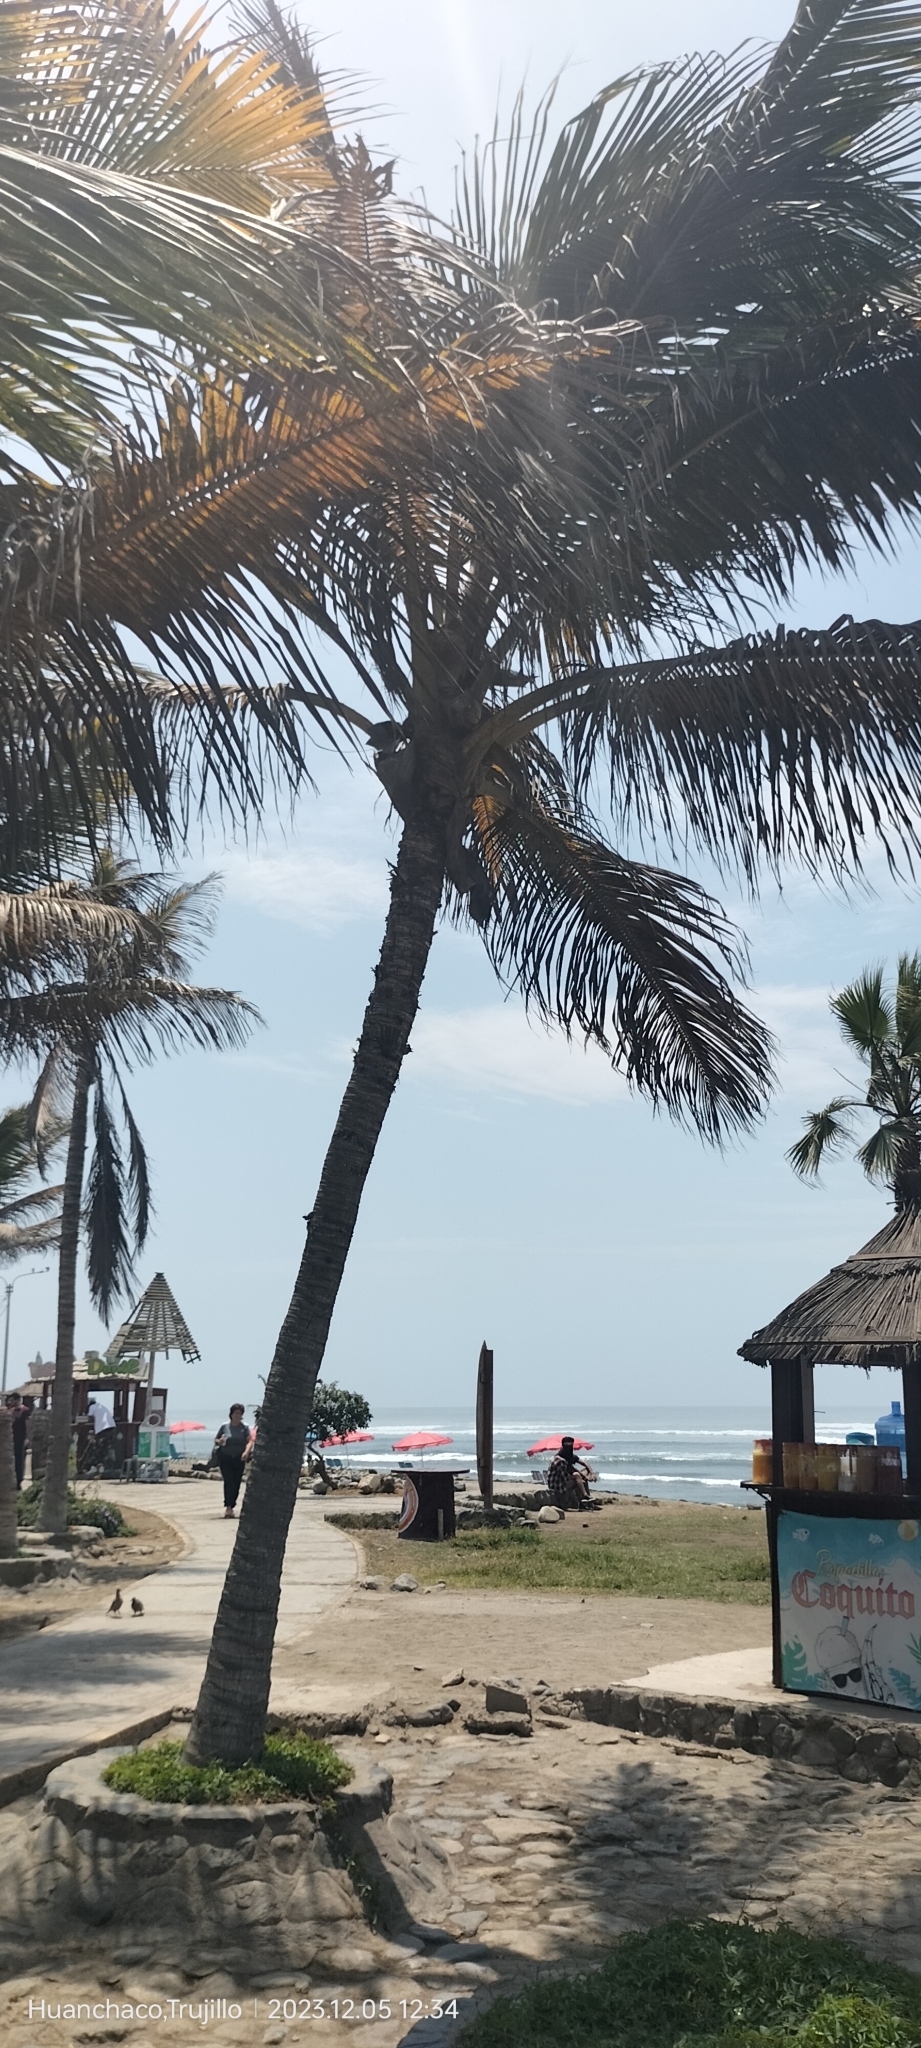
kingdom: Plantae
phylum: Tracheophyta
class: Liliopsida
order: Arecales
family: Arecaceae
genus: Cocos
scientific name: Cocos nucifera
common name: Coconut palm
